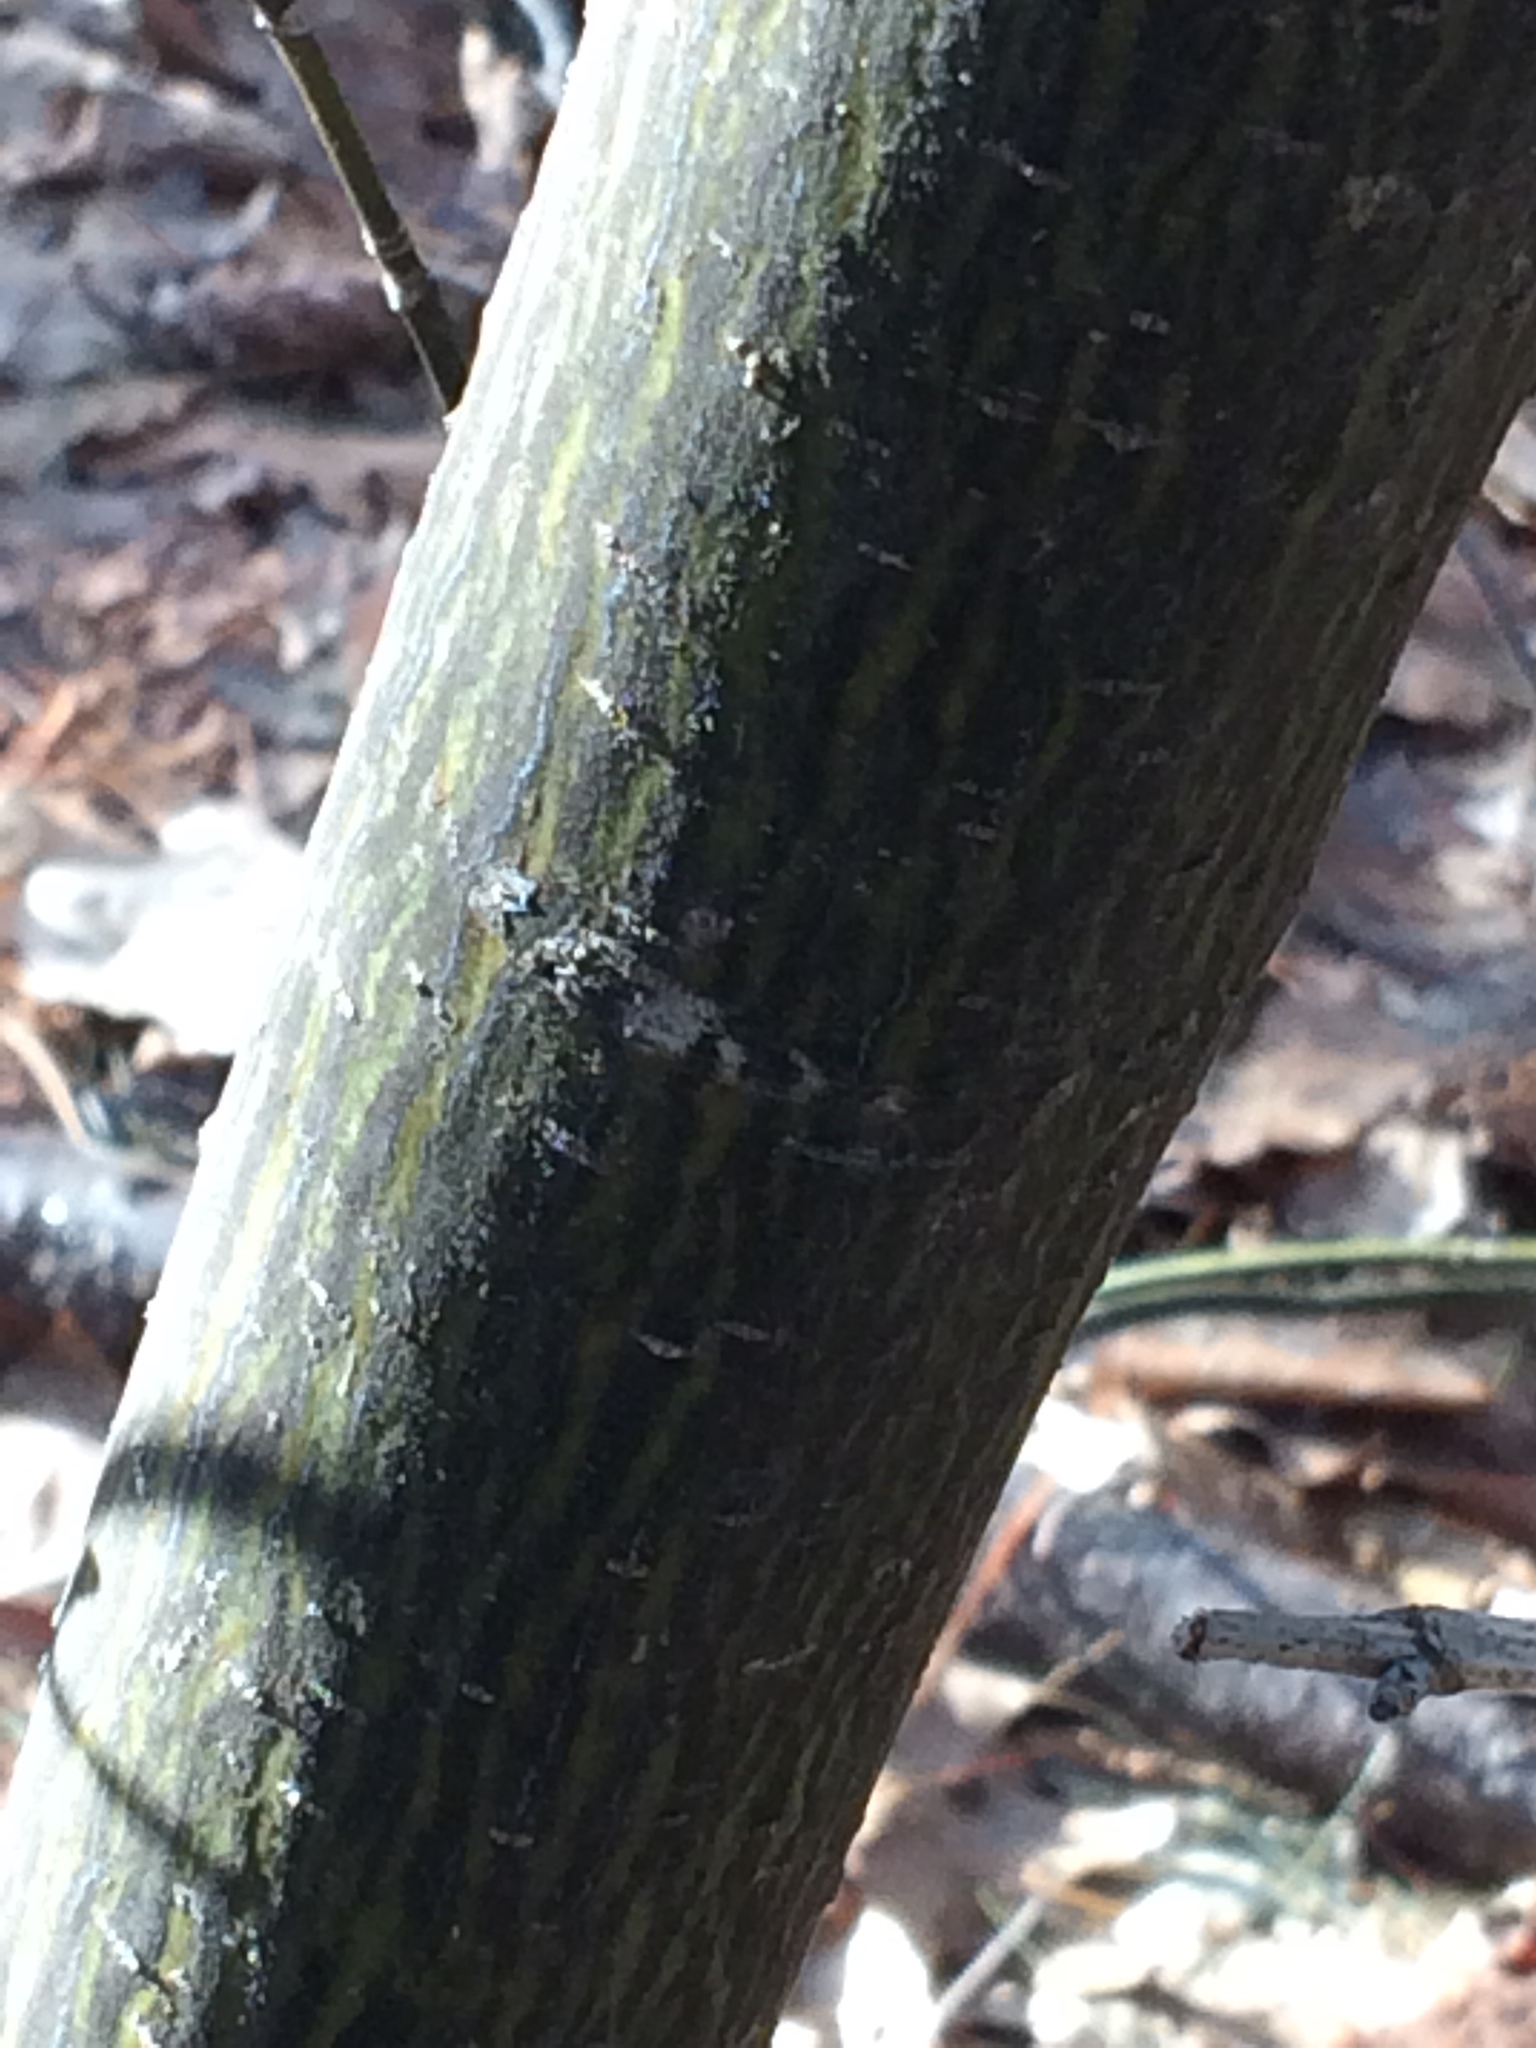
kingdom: Plantae
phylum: Tracheophyta
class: Magnoliopsida
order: Sapindales
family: Sapindaceae
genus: Acer
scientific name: Acer pensylvanicum
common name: Moosewood
